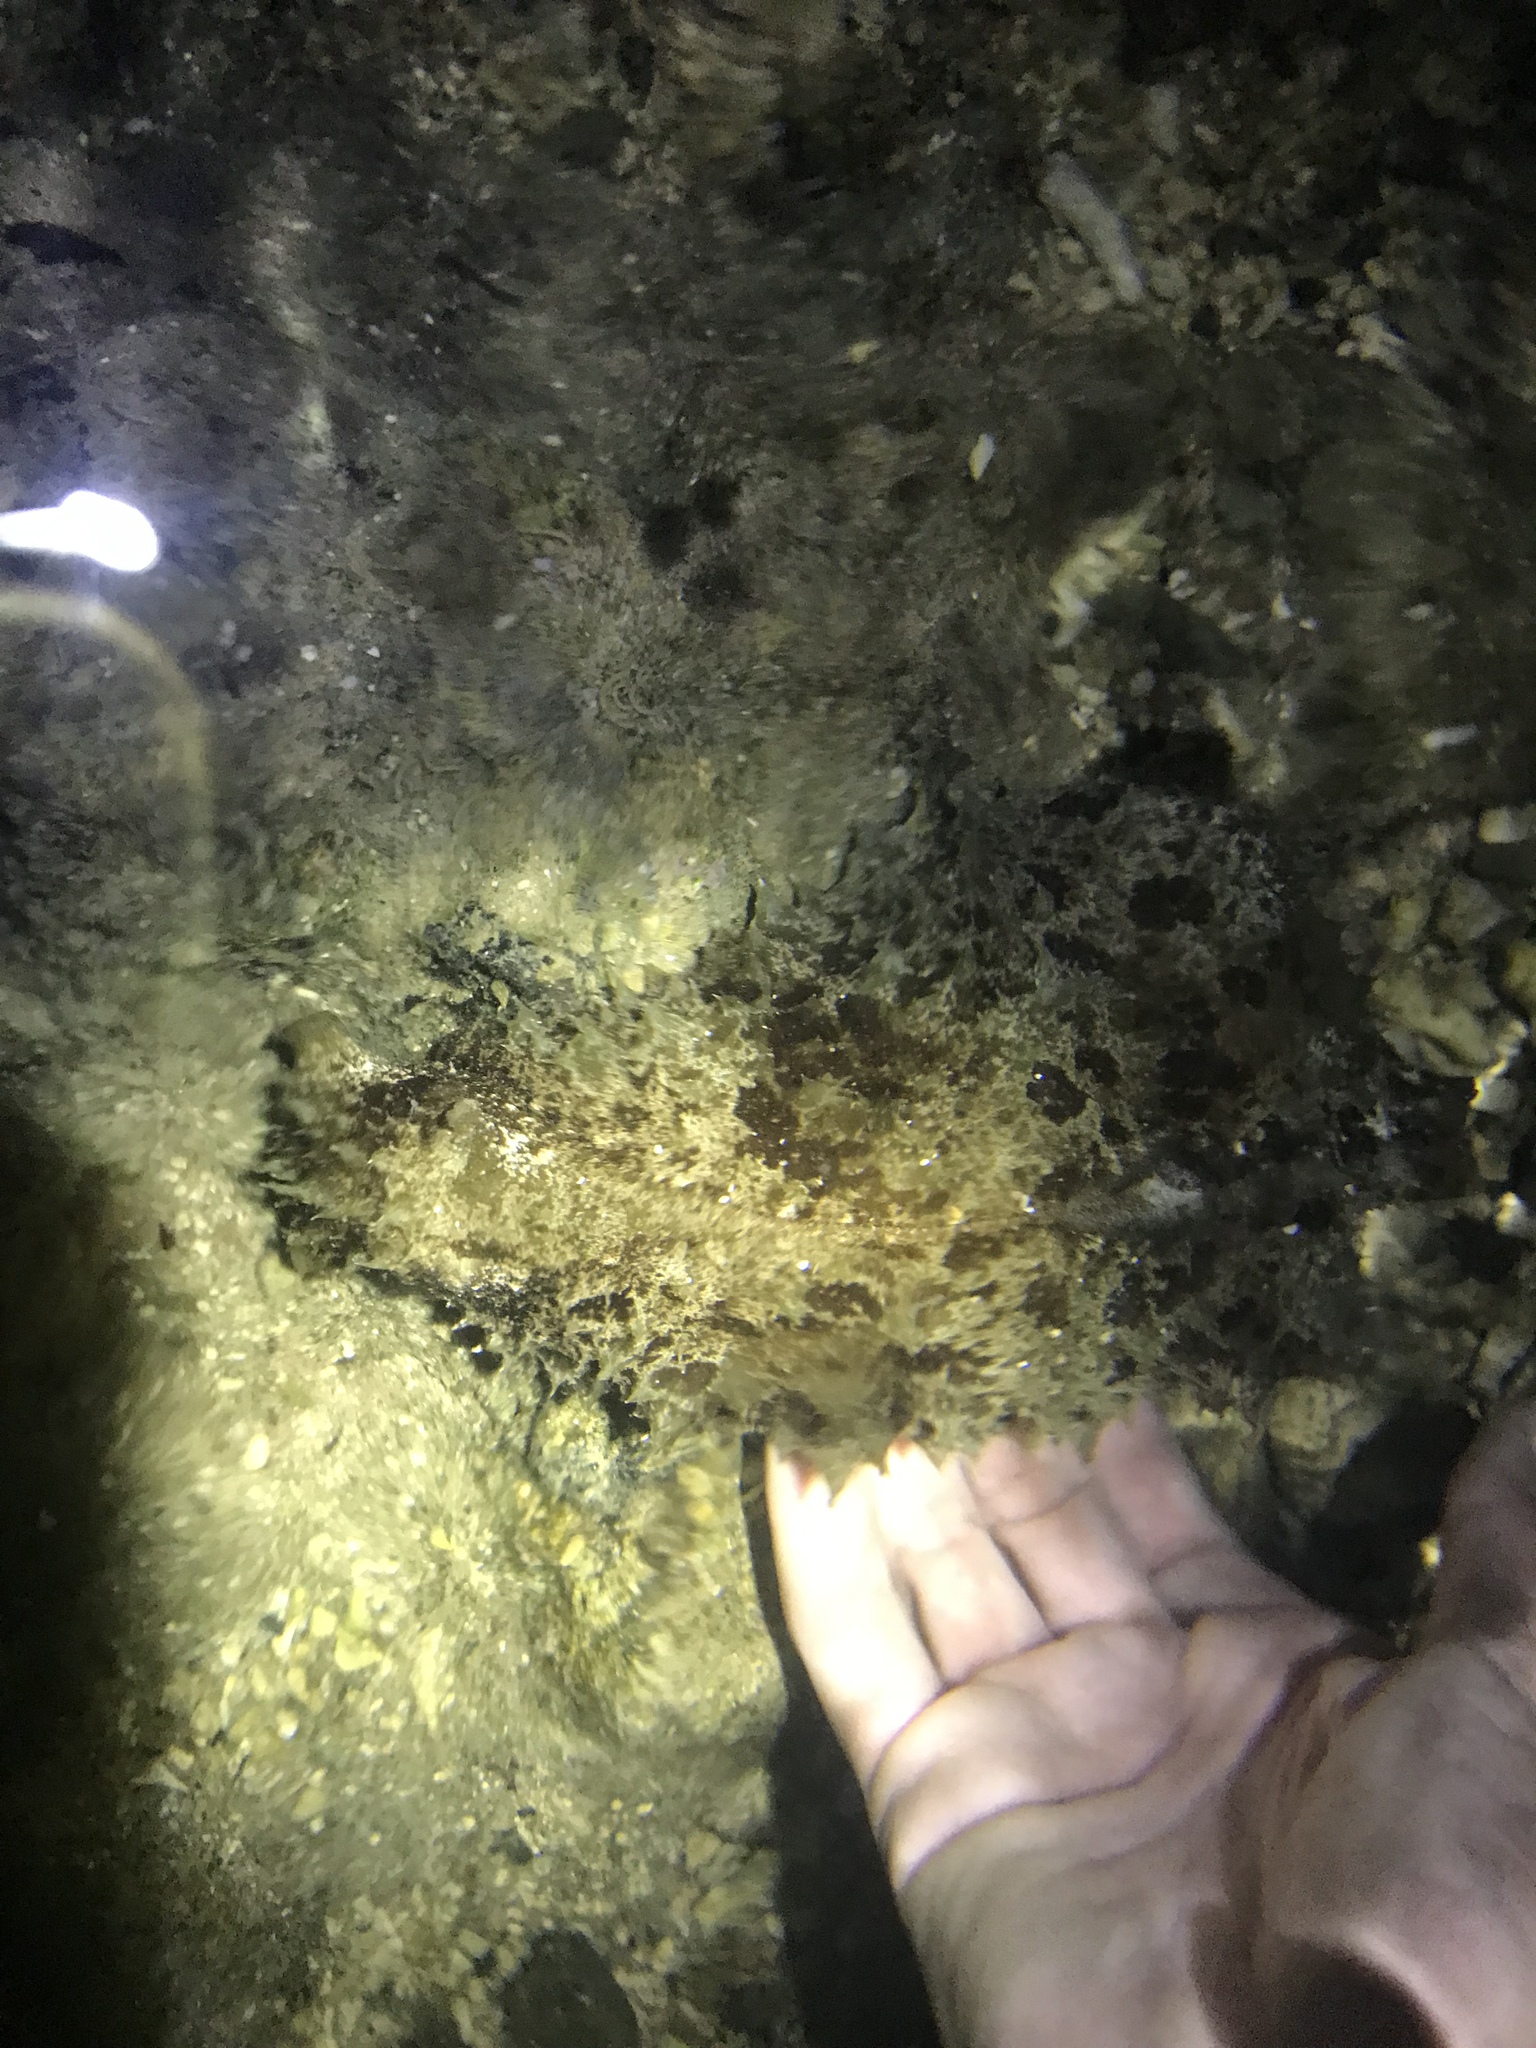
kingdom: Animalia
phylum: Mollusca
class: Gastropoda
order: Aplysiida
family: Aplysiidae
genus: Dolabella
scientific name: Dolabella auricularia
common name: Blunt-end seahare
